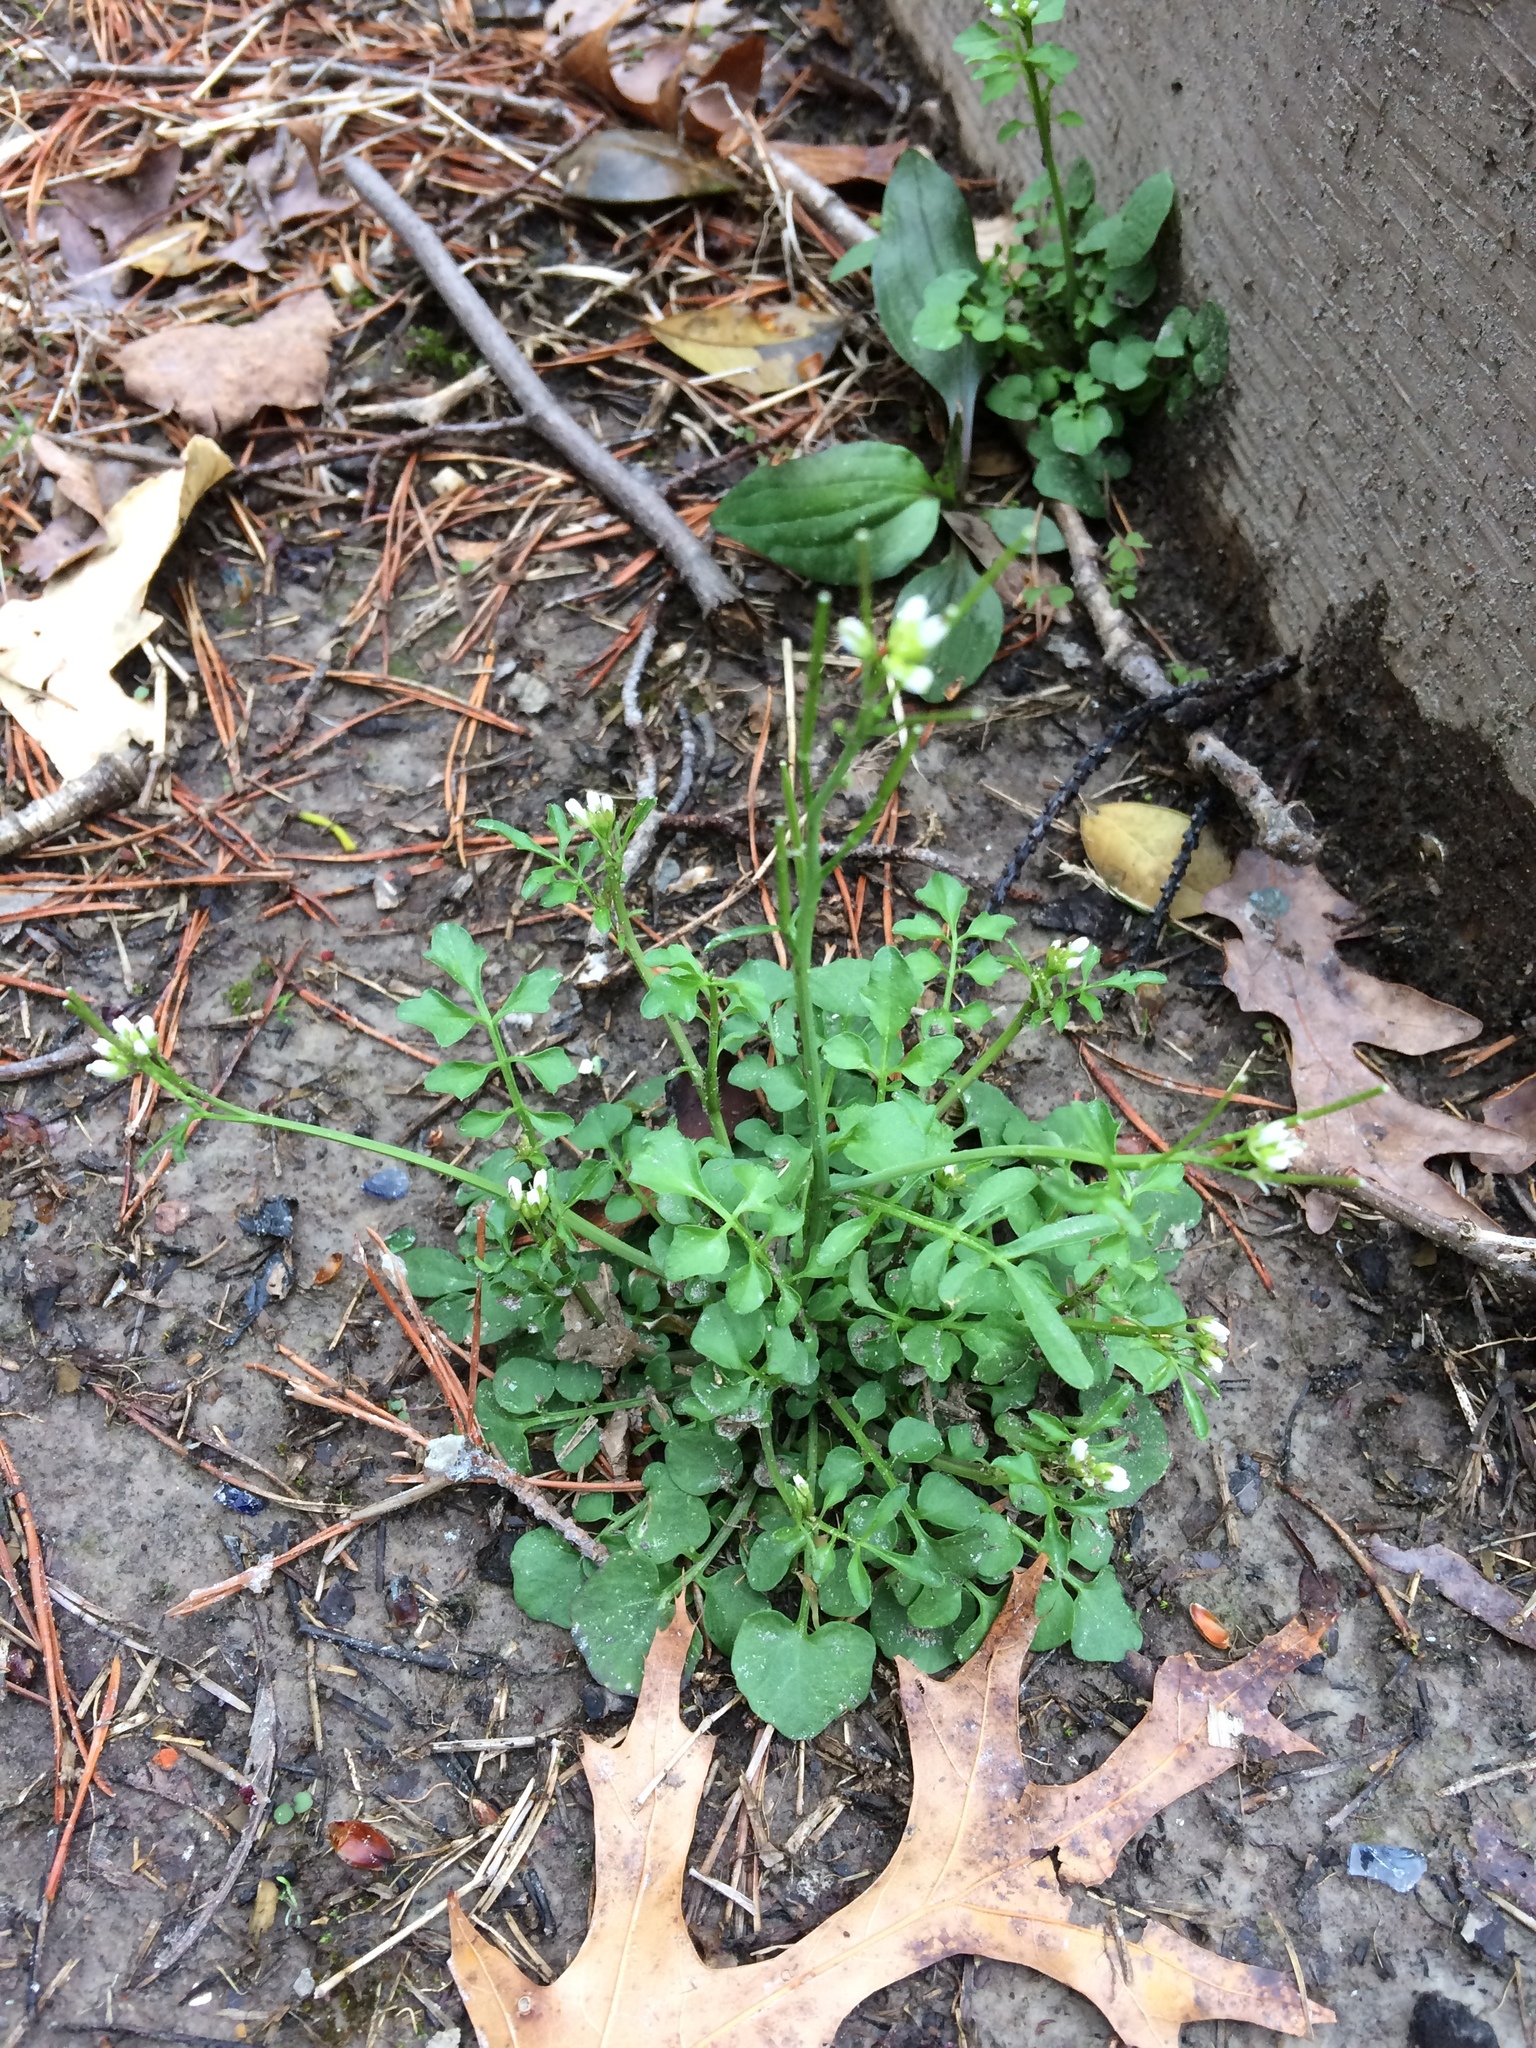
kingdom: Plantae
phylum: Tracheophyta
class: Magnoliopsida
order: Brassicales
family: Brassicaceae
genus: Cardamine
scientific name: Cardamine hirsuta
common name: Hairy bittercress
